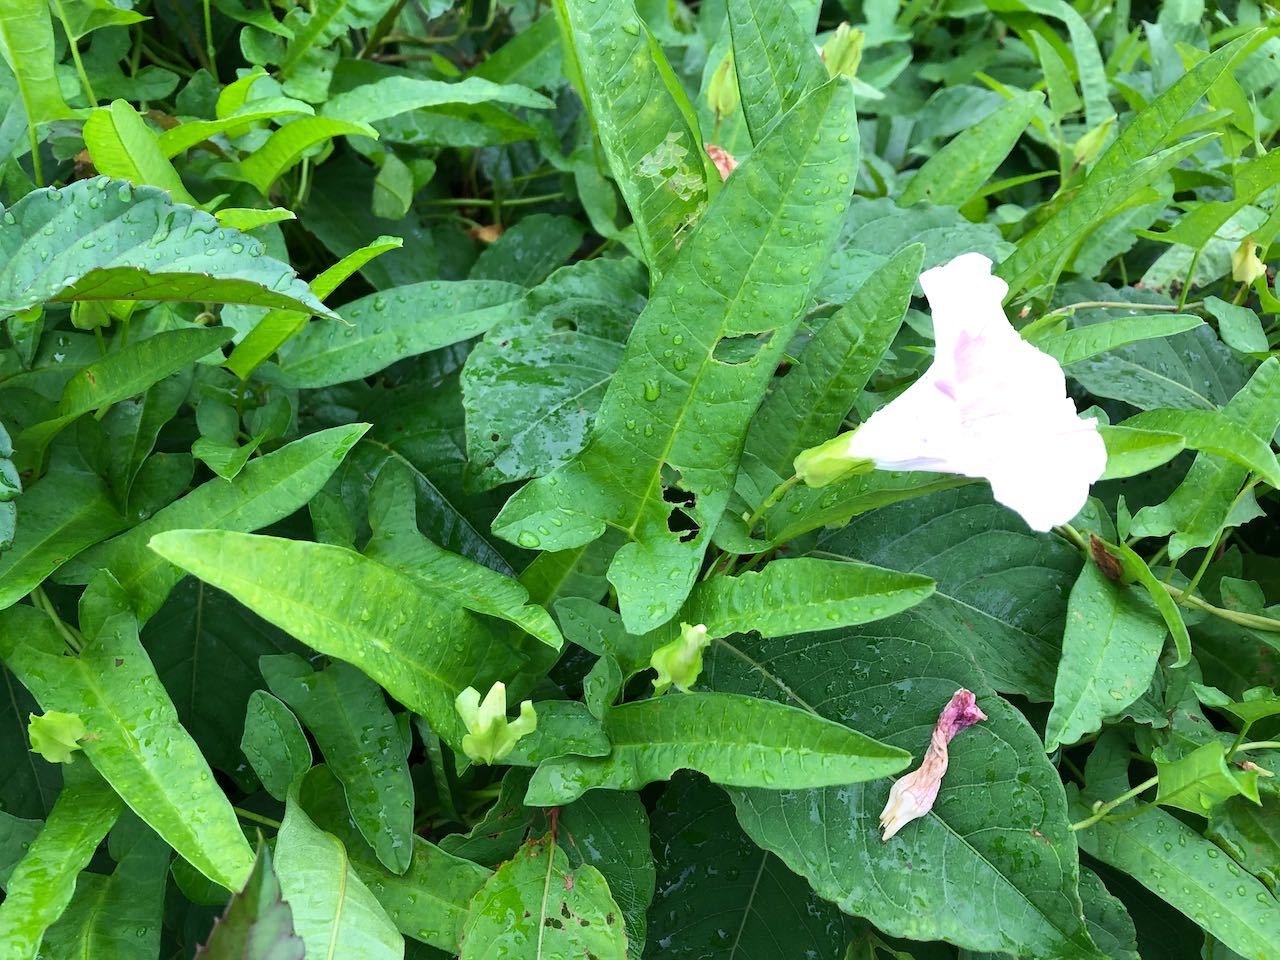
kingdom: Plantae
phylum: Tracheophyta
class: Magnoliopsida
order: Solanales
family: Convolvulaceae
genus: Calystegia
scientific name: Calystegia pubescens
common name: Japanese bindweed
